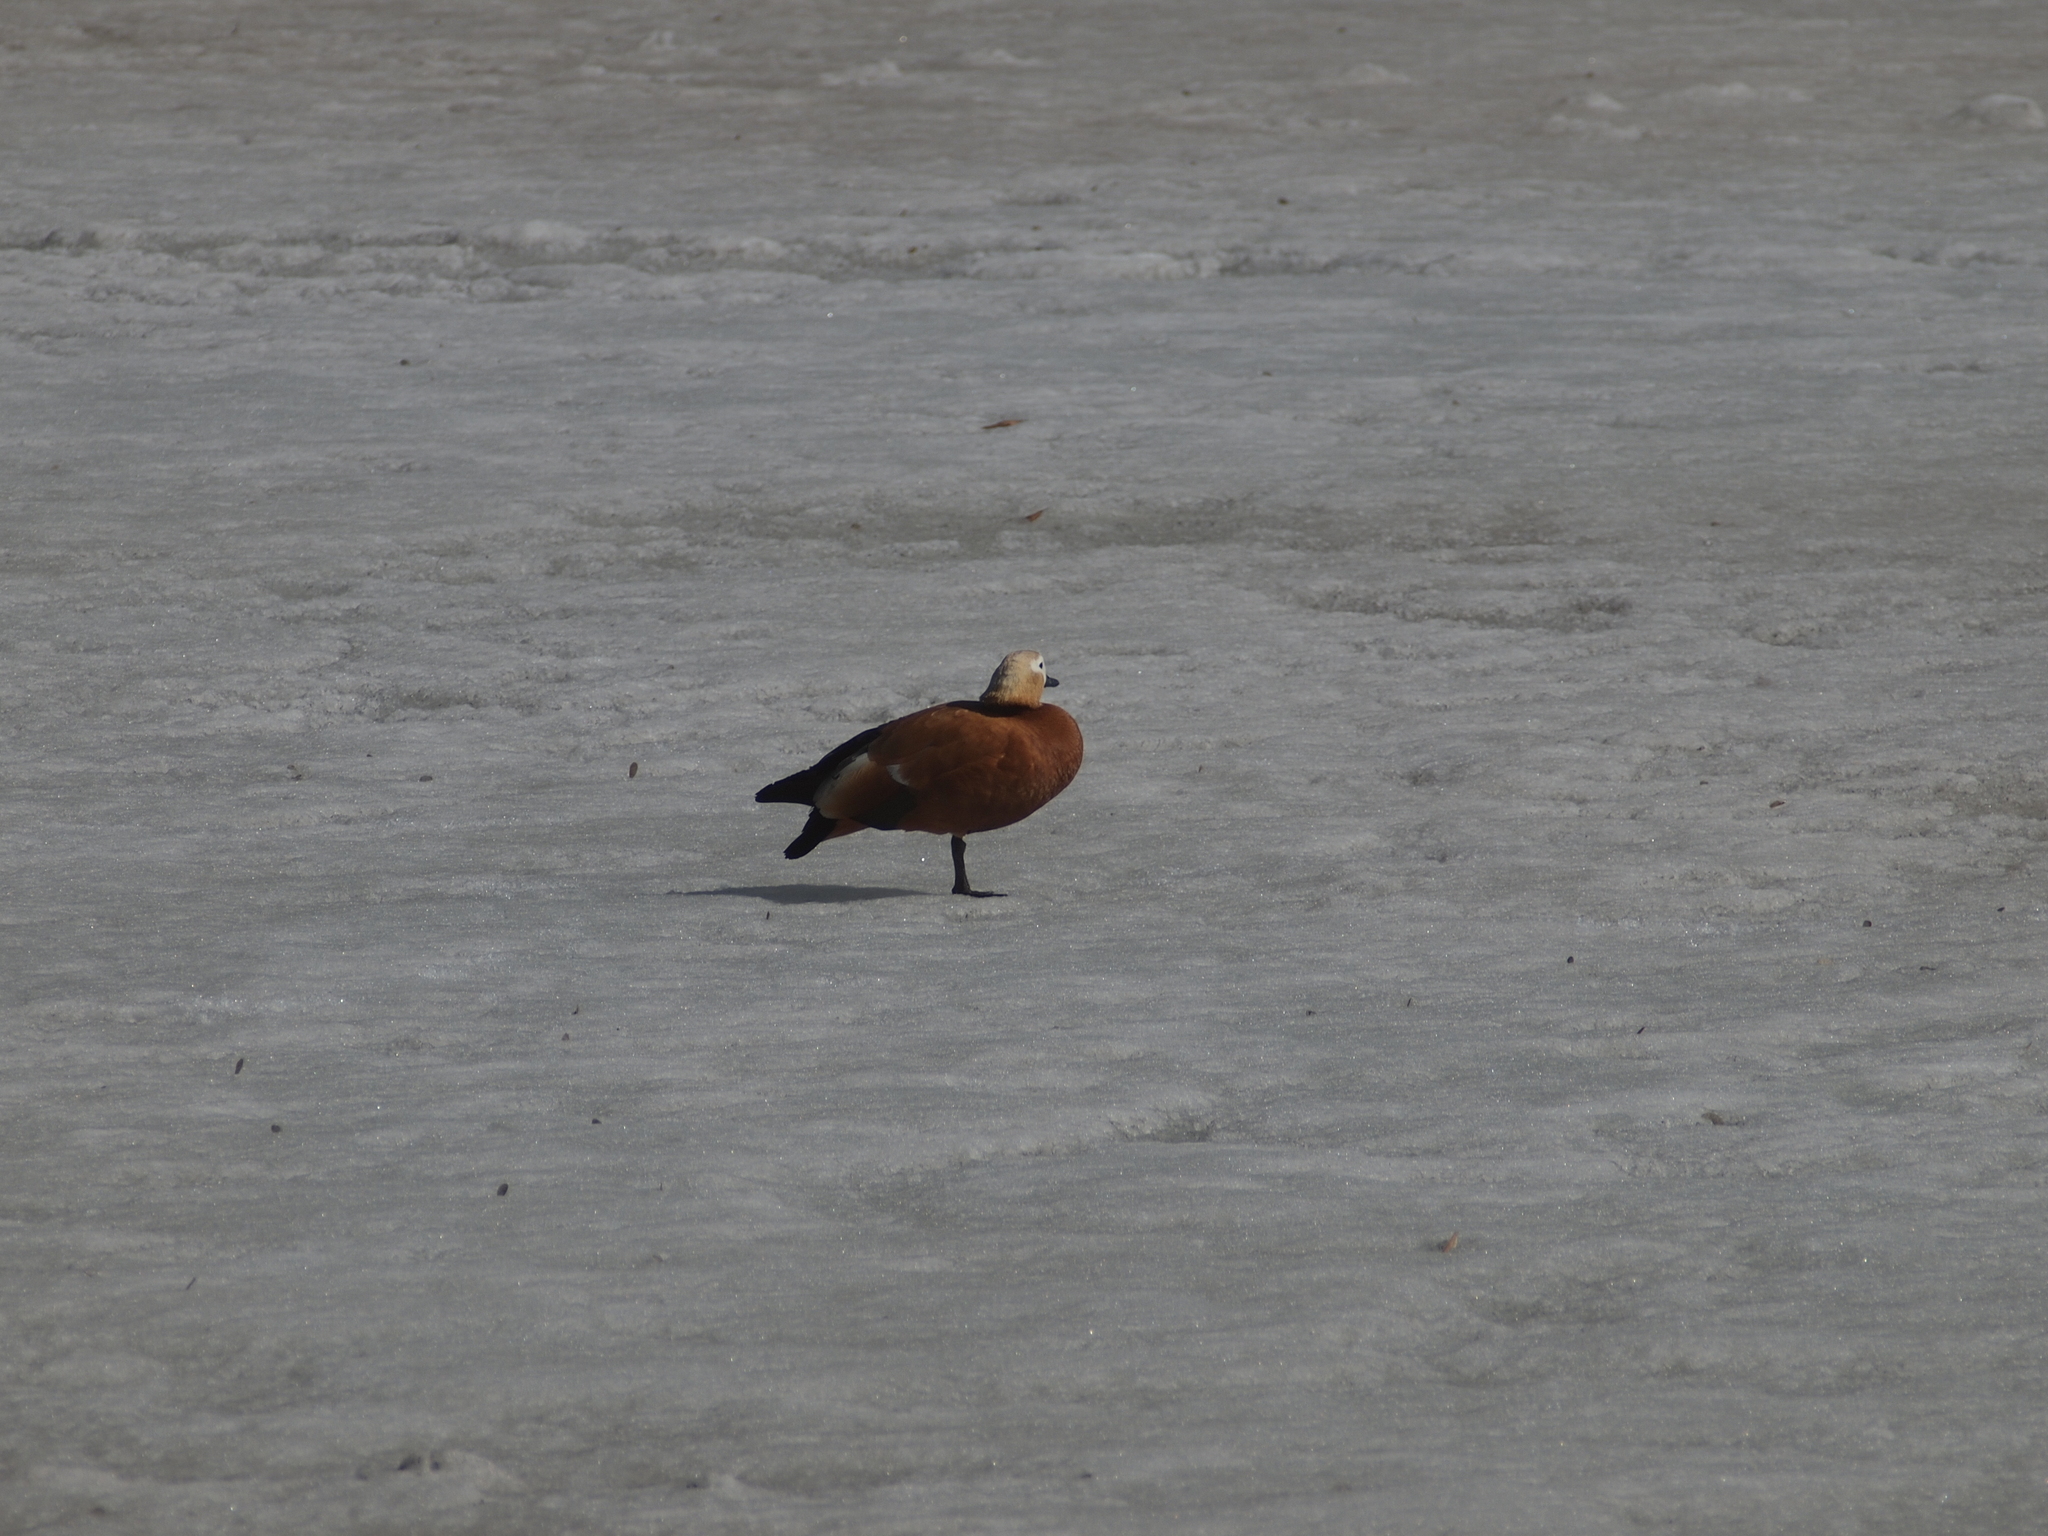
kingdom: Animalia
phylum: Chordata
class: Aves
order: Anseriformes
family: Anatidae
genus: Tadorna
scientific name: Tadorna ferruginea
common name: Ruddy shelduck
